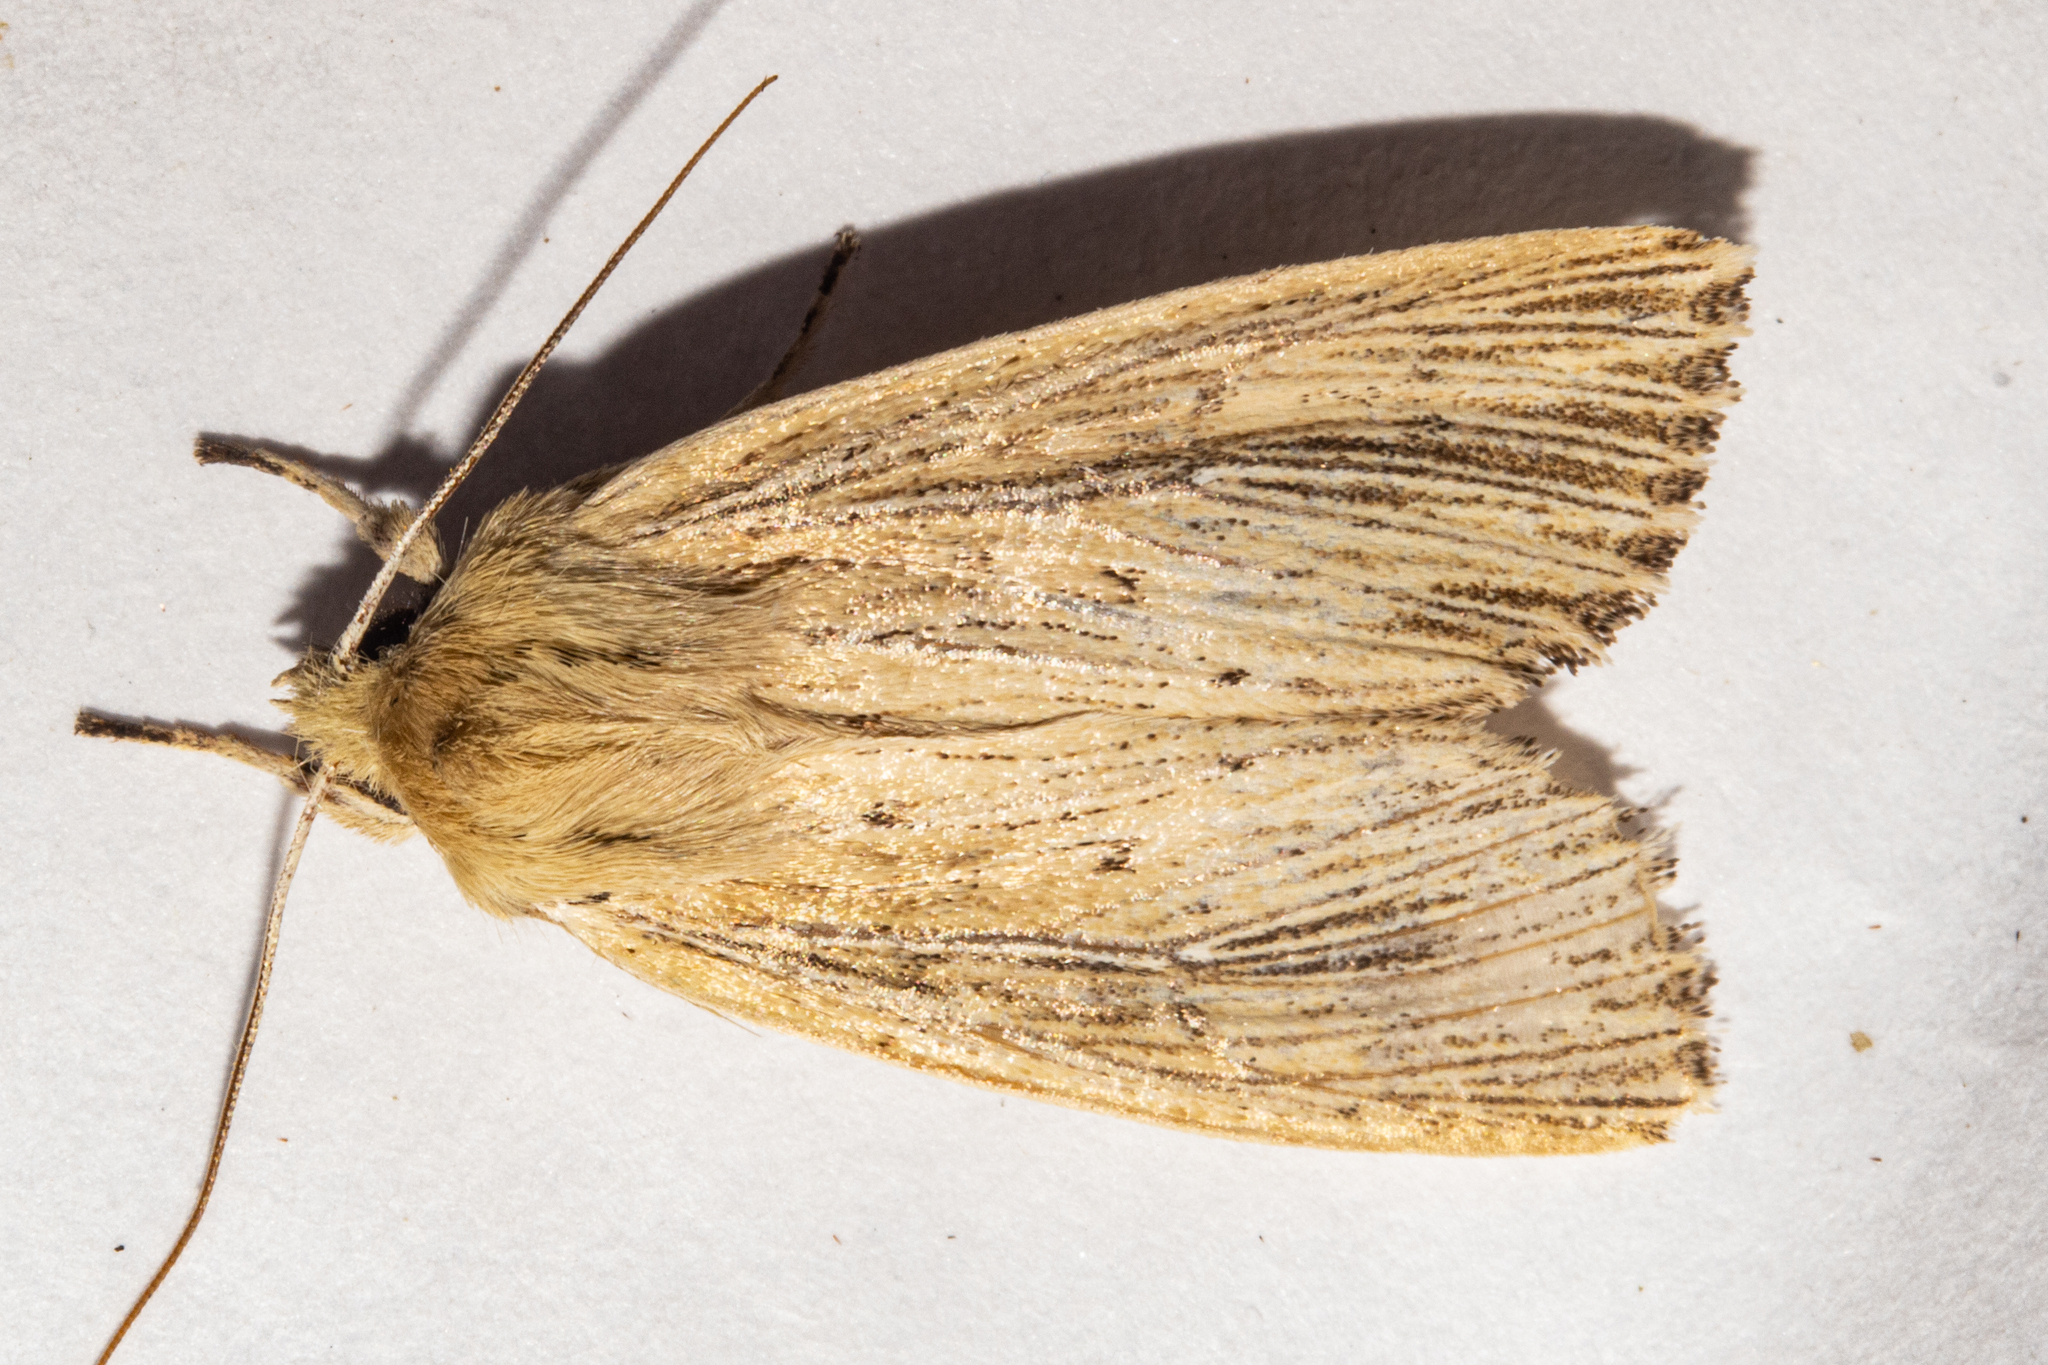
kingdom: Animalia
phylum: Arthropoda
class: Insecta
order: Lepidoptera
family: Noctuidae
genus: Ichneutica
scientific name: Ichneutica arotis
